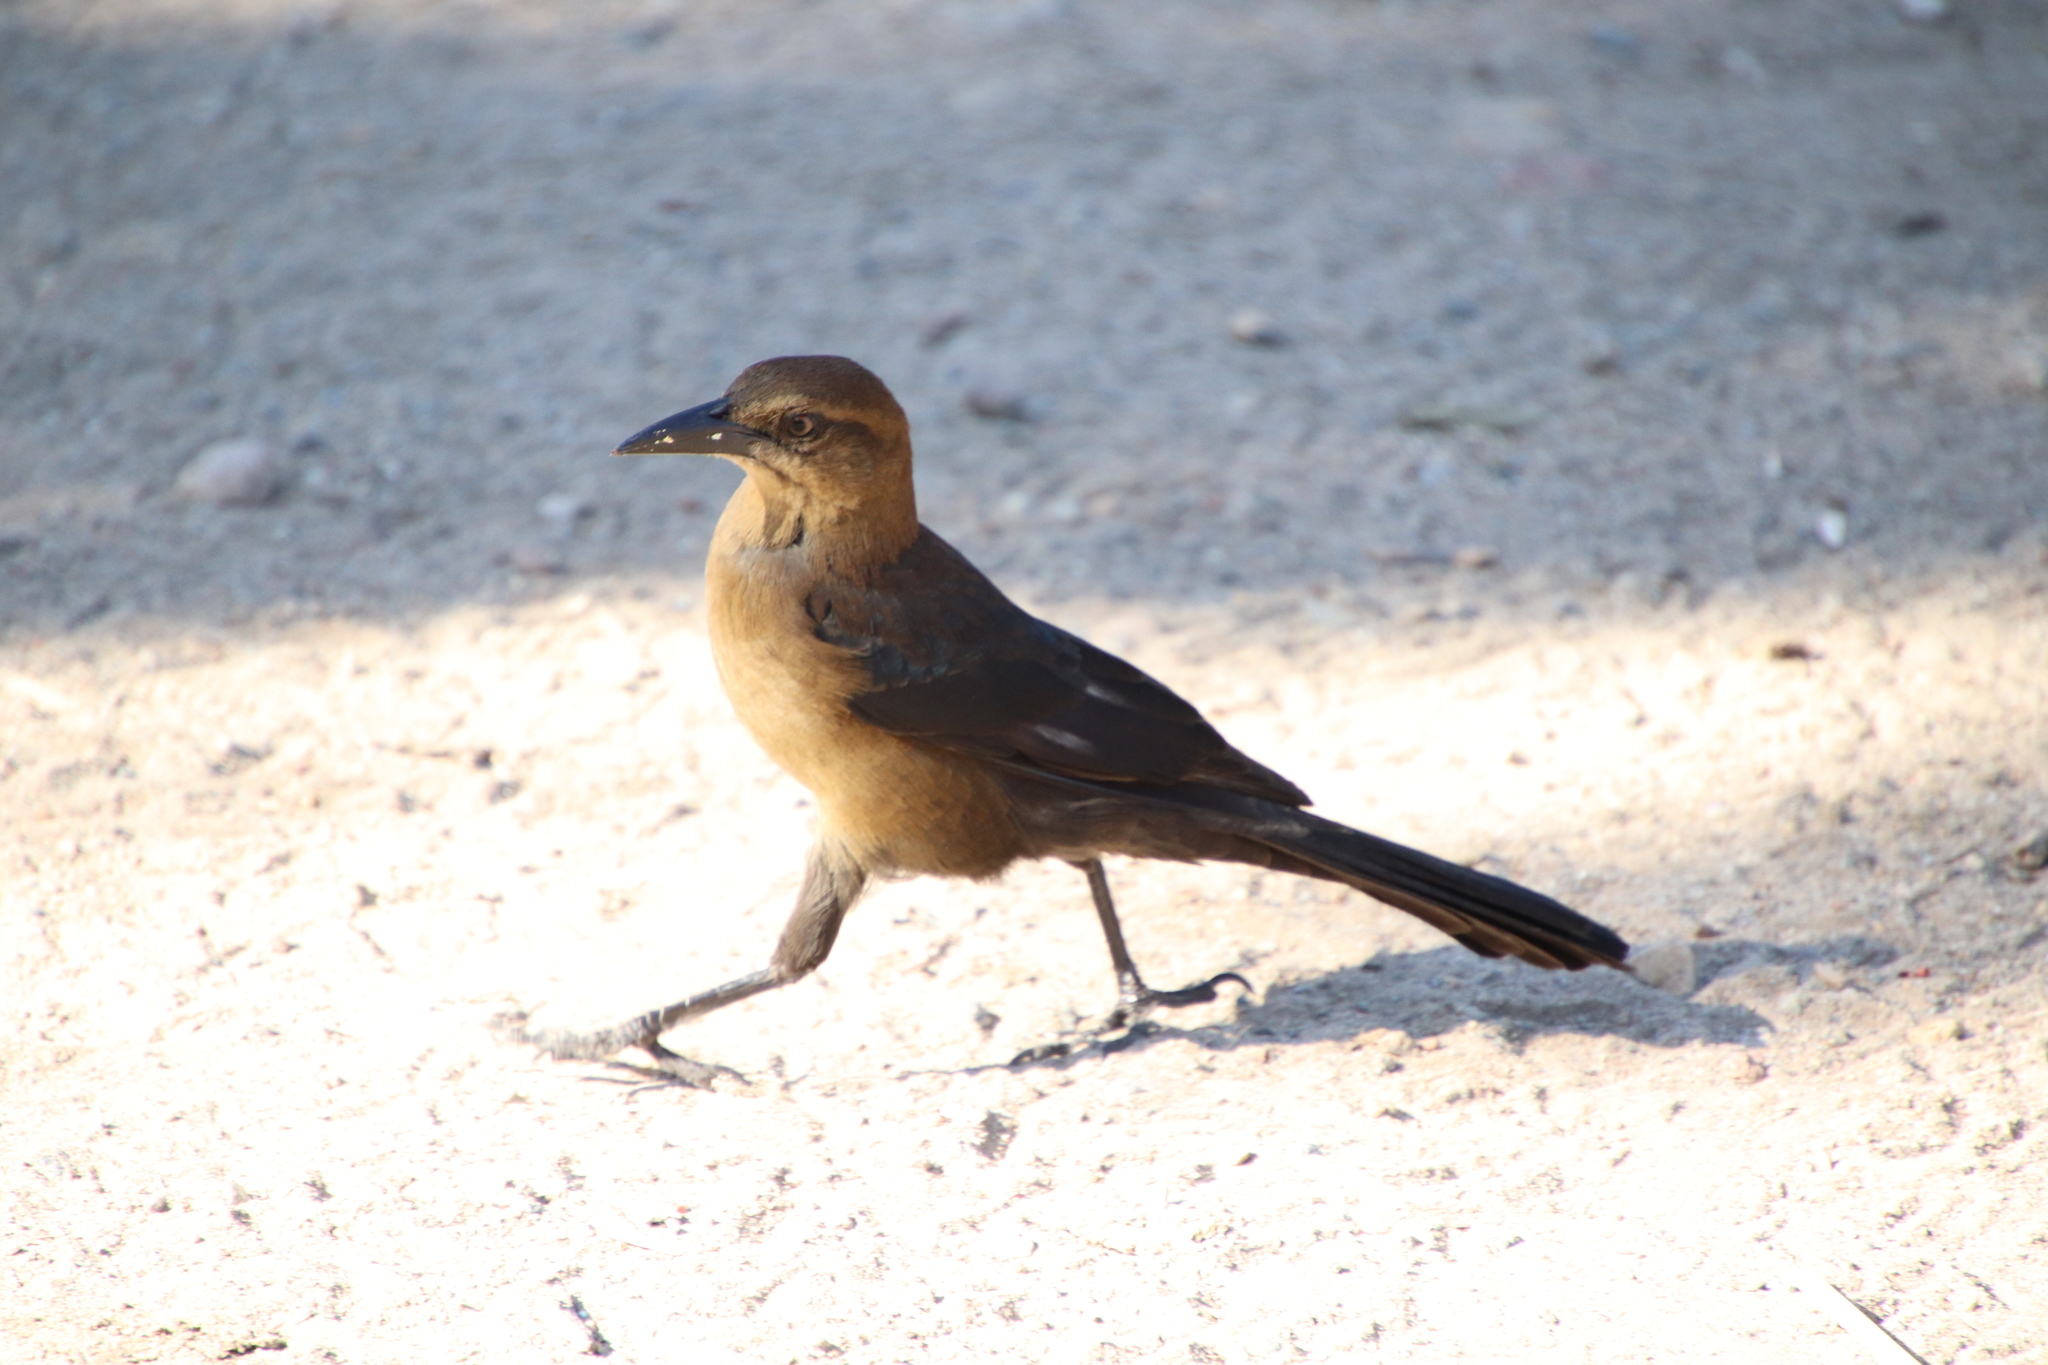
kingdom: Animalia
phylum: Chordata
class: Aves
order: Passeriformes
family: Icteridae
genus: Quiscalus
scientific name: Quiscalus mexicanus
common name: Great-tailed grackle
